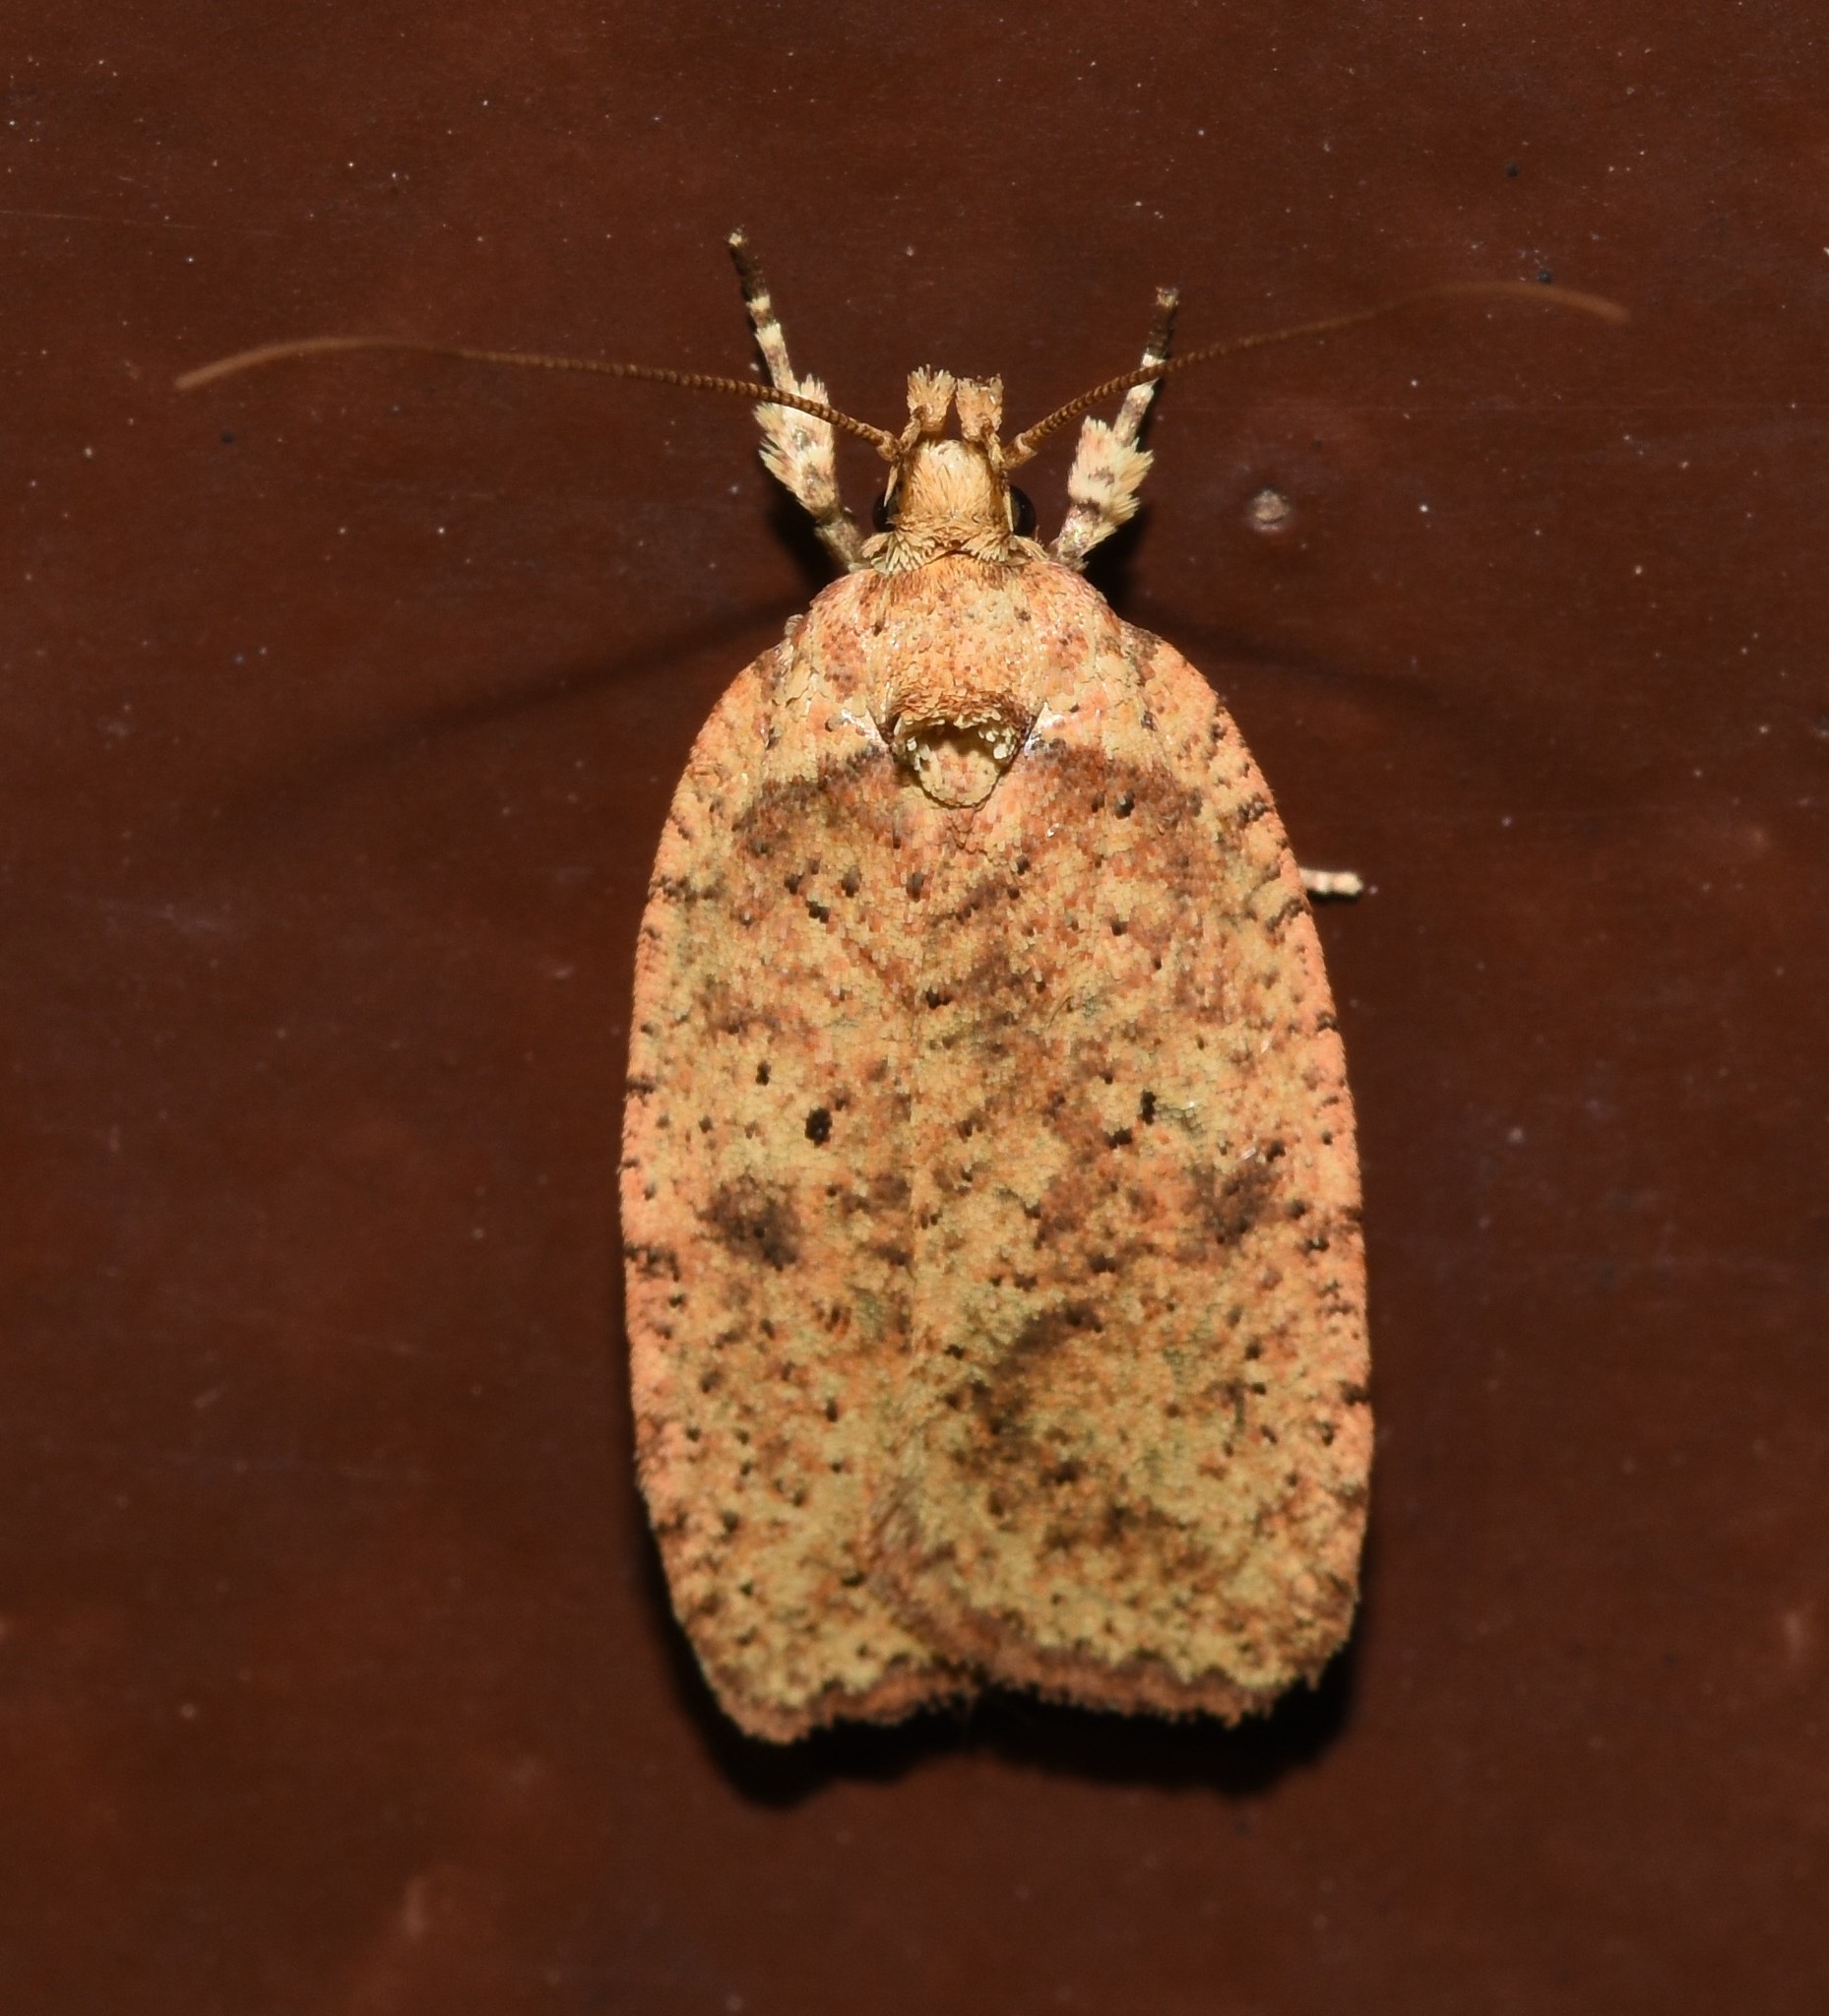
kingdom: Animalia
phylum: Arthropoda
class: Insecta
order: Lepidoptera
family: Depressariidae
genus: Agonopterix
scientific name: Agonopterix thelmae
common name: Thelma's agonopterix moth
